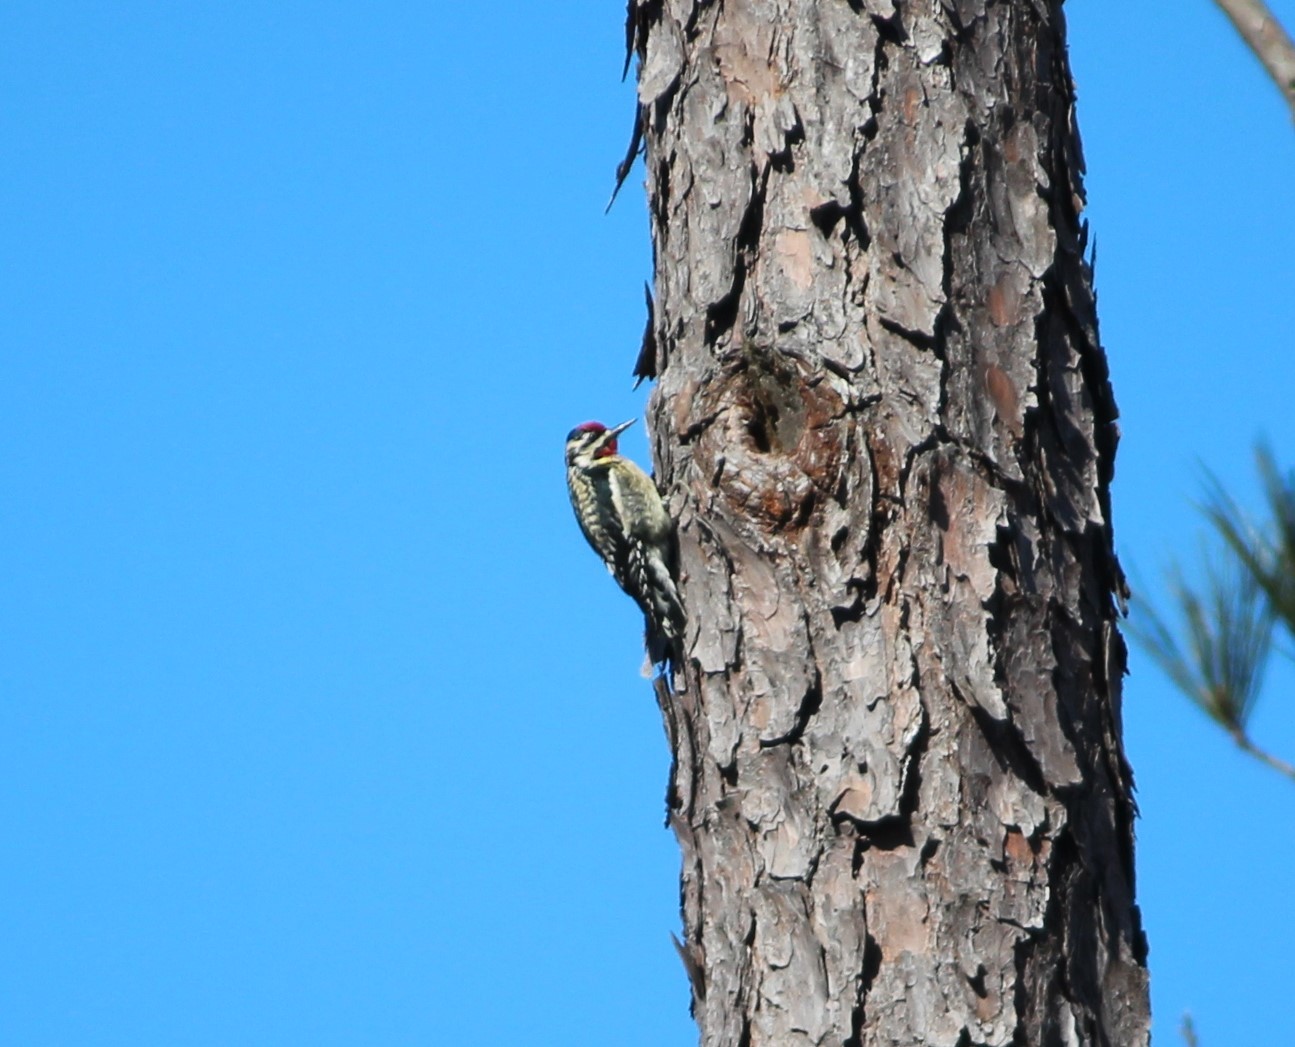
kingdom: Animalia
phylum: Chordata
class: Aves
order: Piciformes
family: Picidae
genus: Sphyrapicus
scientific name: Sphyrapicus varius
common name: Yellow-bellied sapsucker
